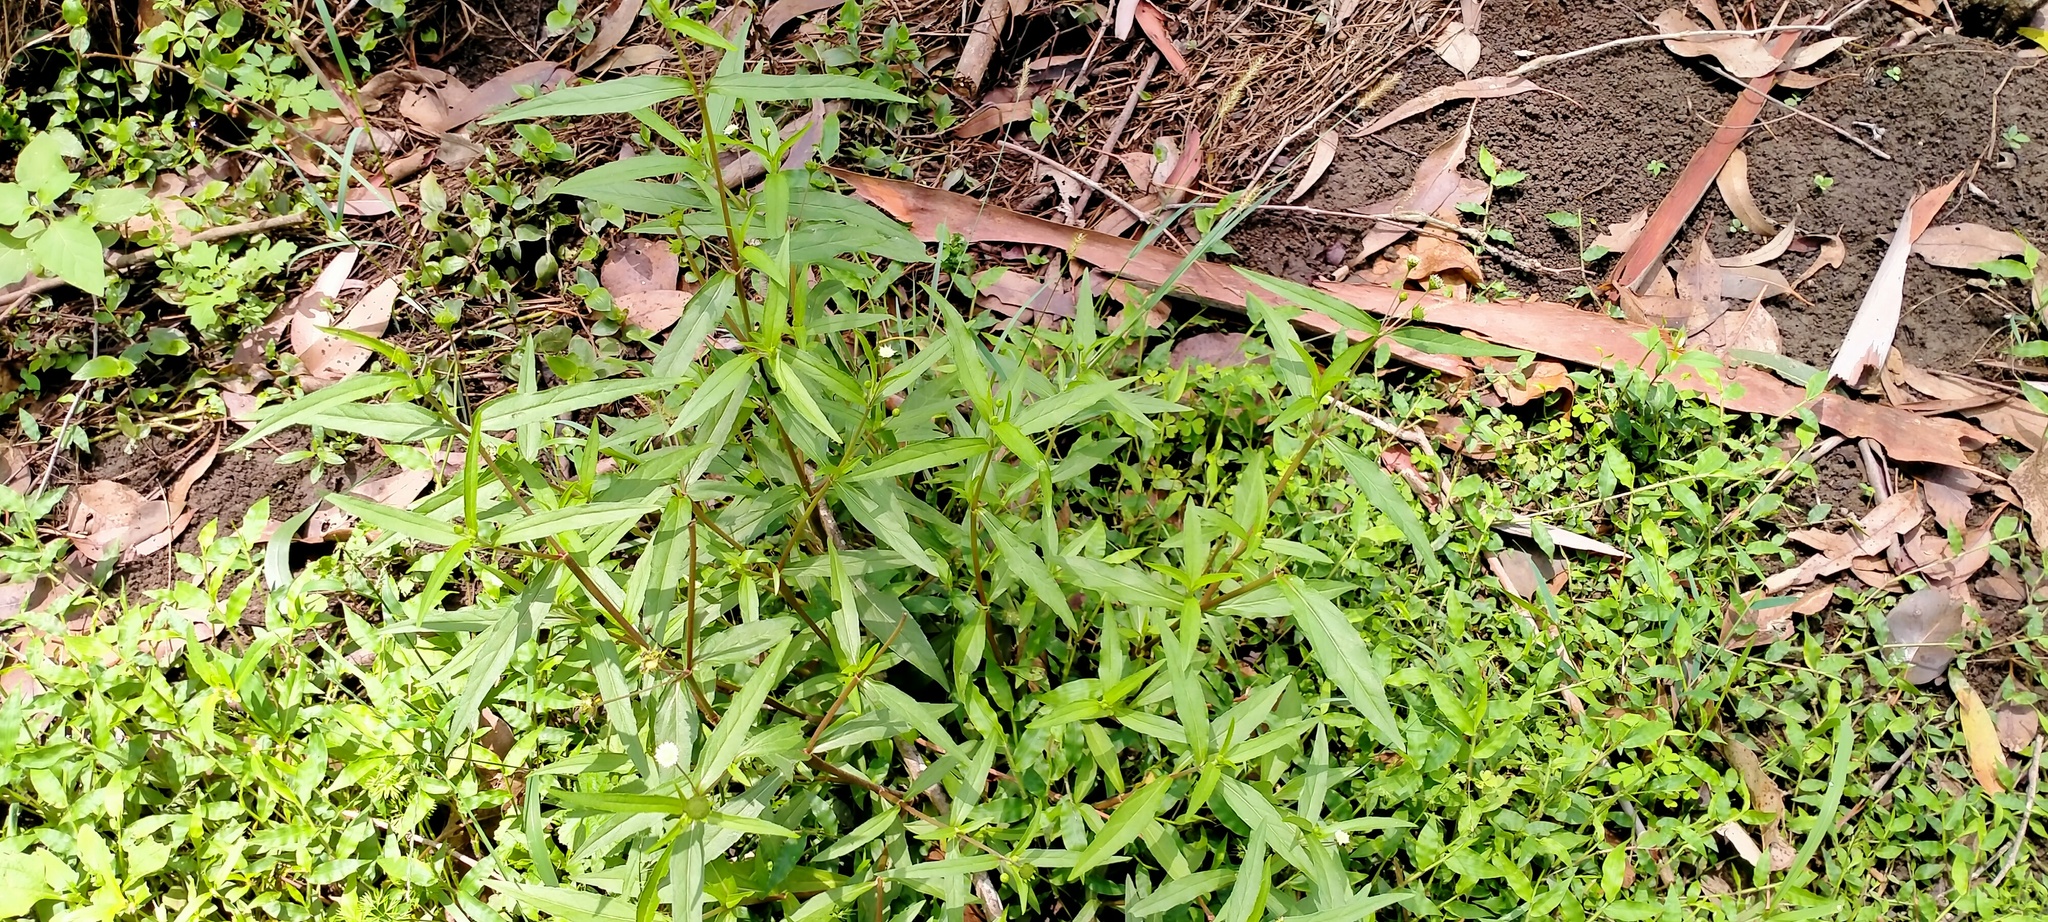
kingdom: Plantae
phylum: Tracheophyta
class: Magnoliopsida
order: Asterales
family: Asteraceae
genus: Eclipta
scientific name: Eclipta prostrata
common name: False daisy
